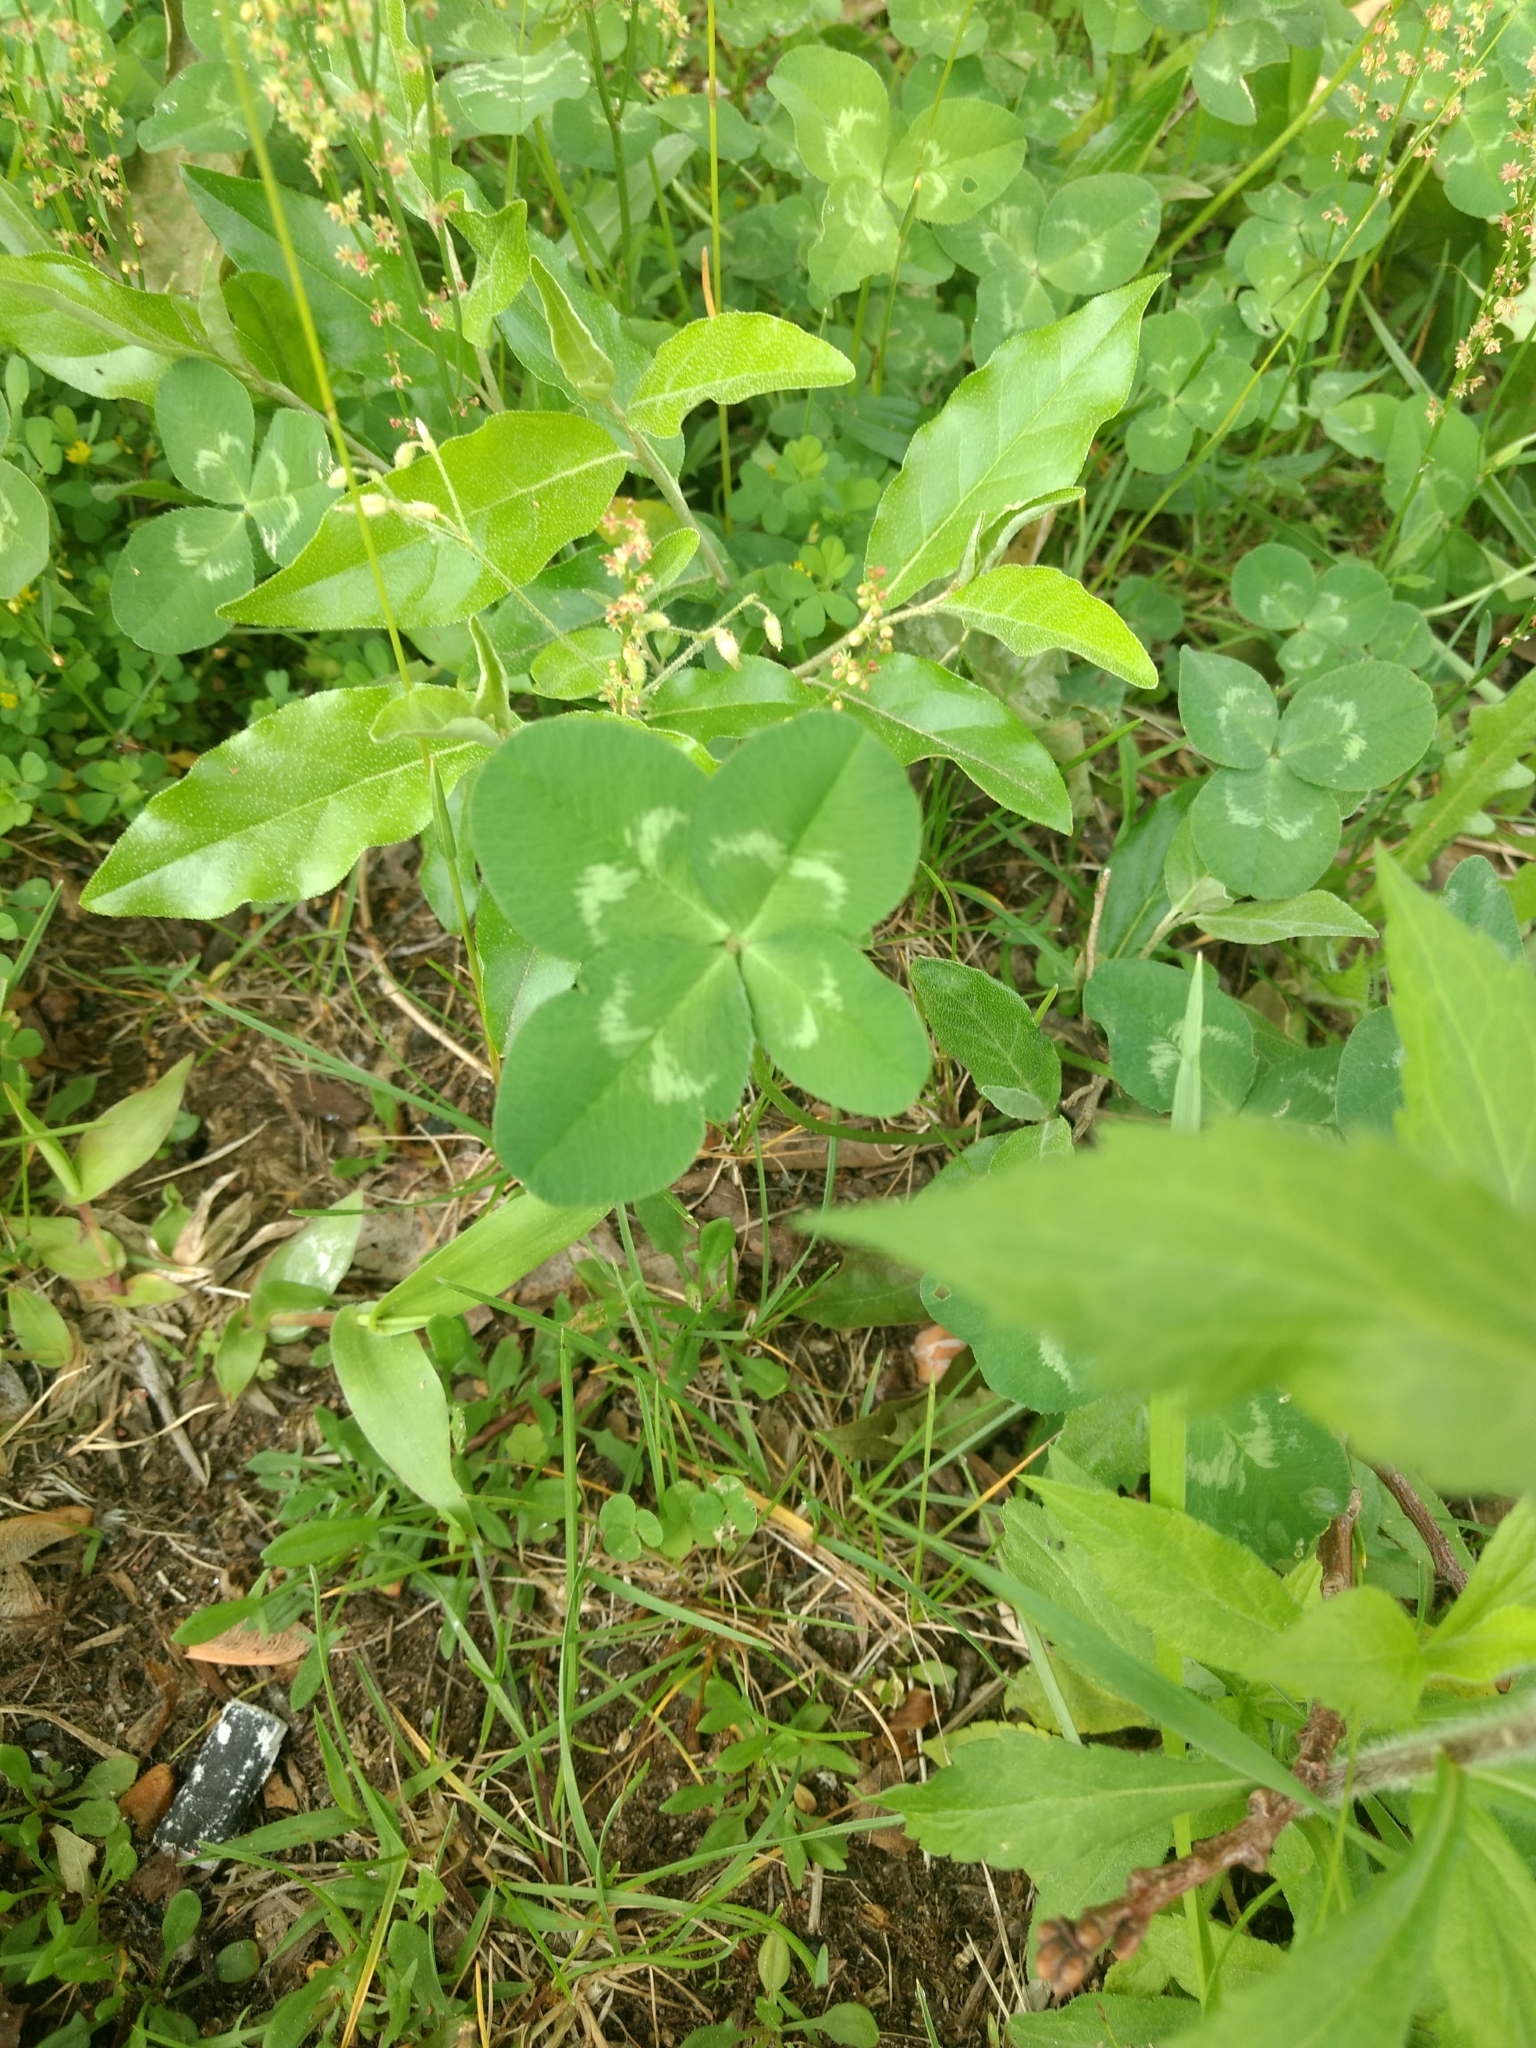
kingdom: Plantae
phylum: Tracheophyta
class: Magnoliopsida
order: Fabales
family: Fabaceae
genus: Trifolium
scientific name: Trifolium repens
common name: White clover
